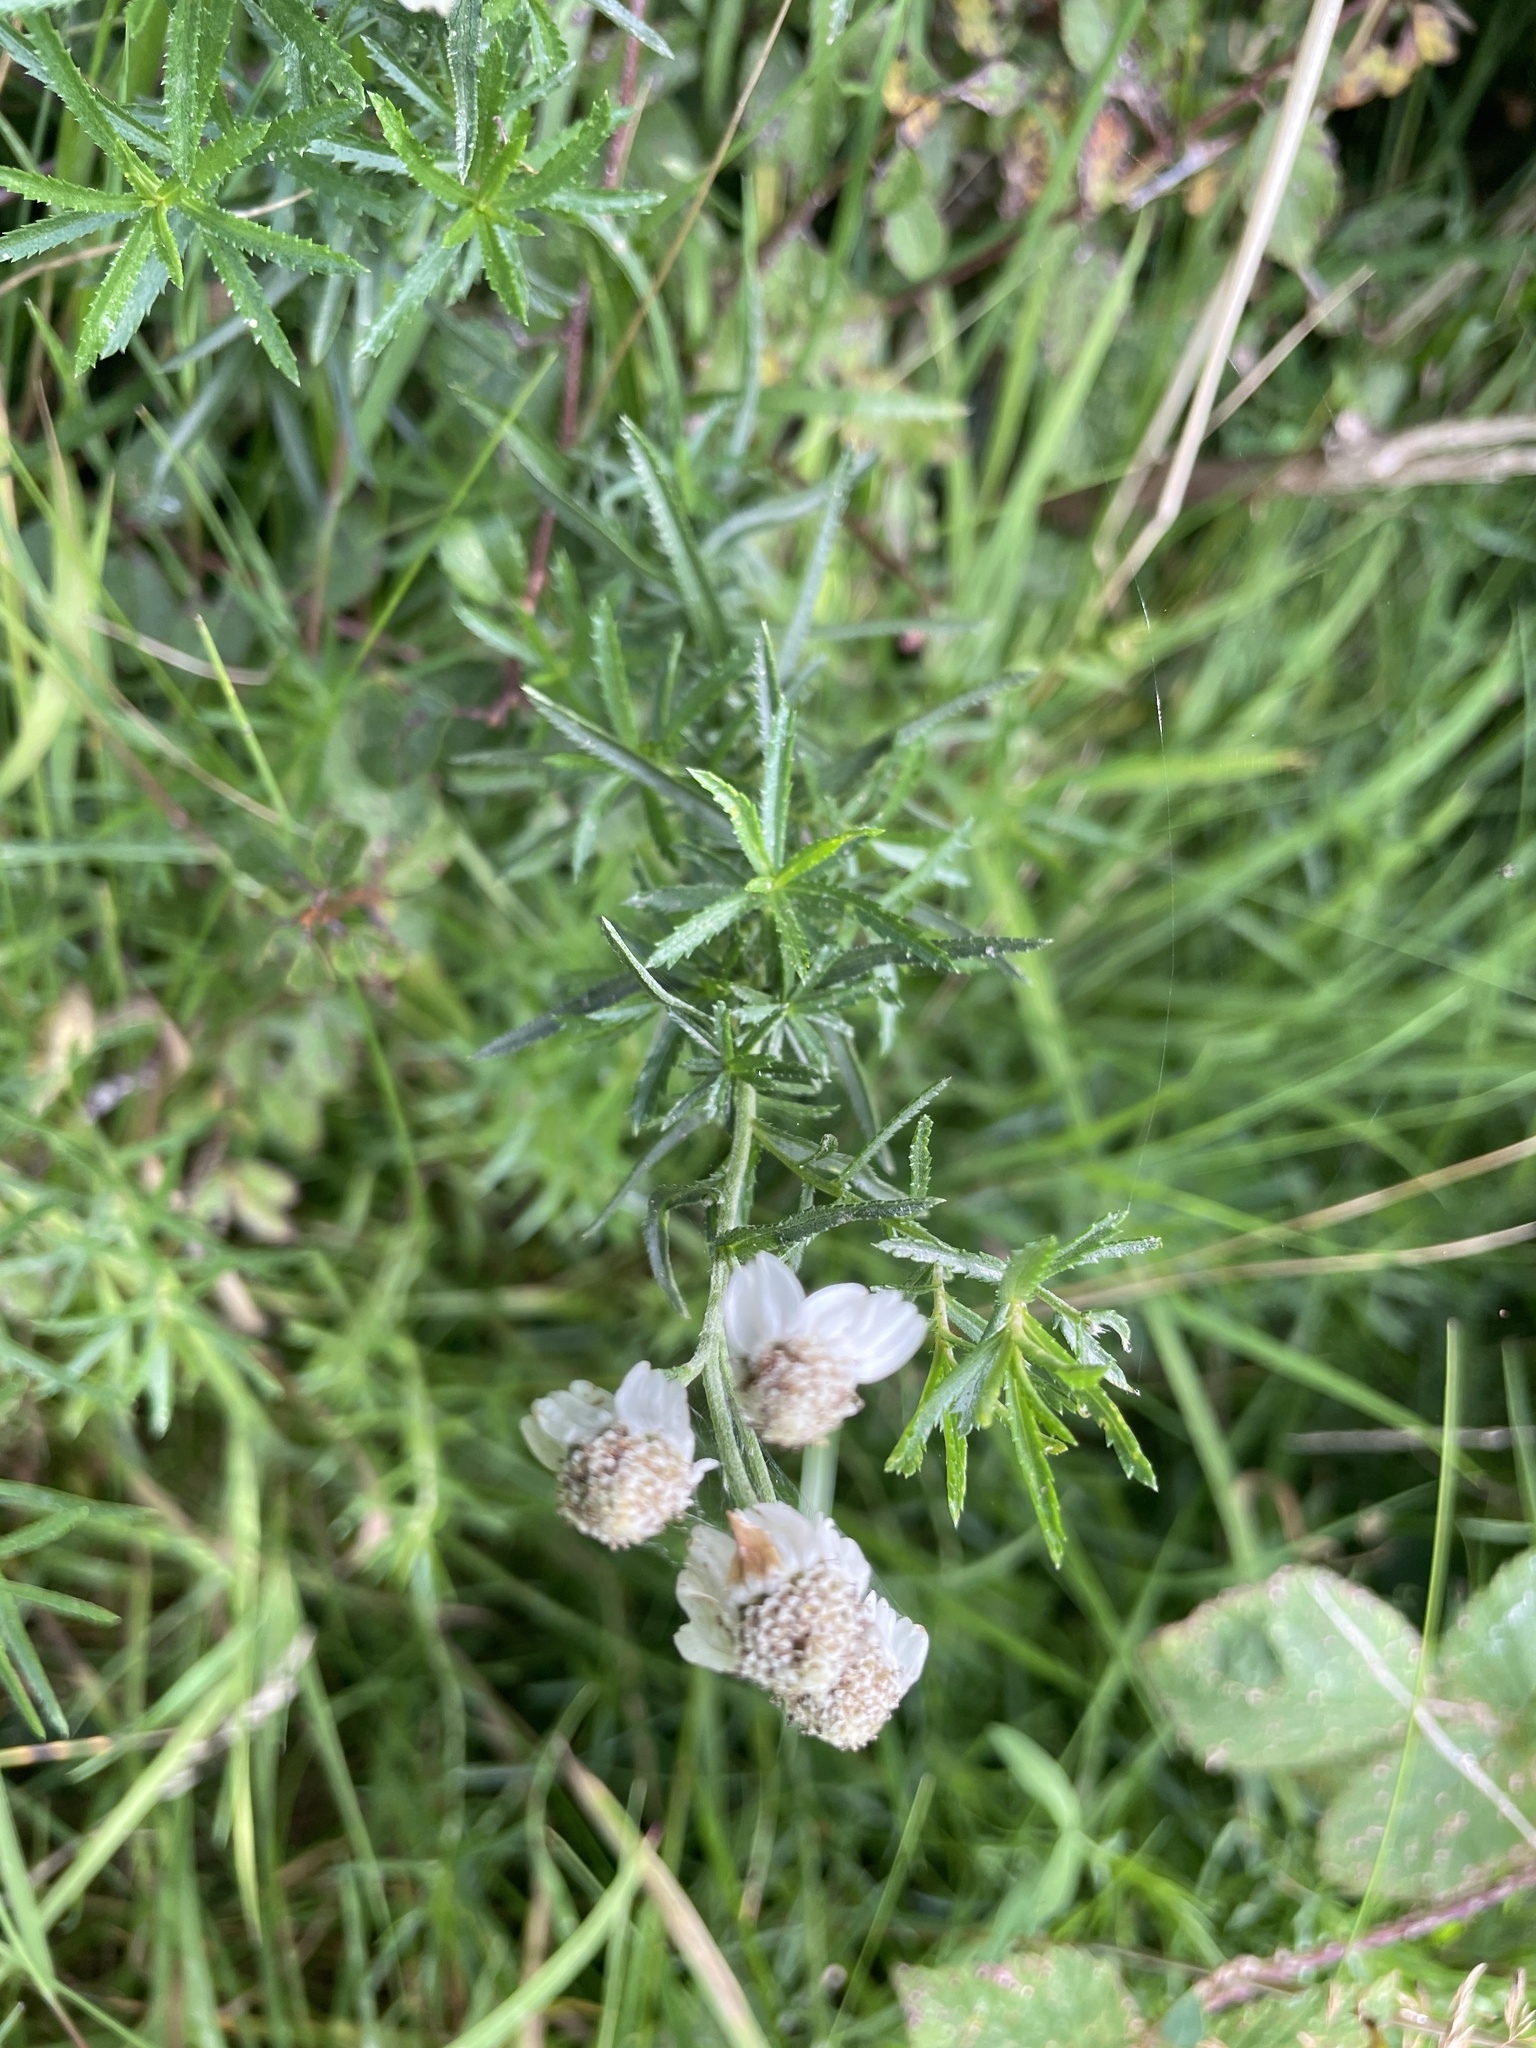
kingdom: Plantae
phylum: Tracheophyta
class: Magnoliopsida
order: Asterales
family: Asteraceae
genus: Achillea
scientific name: Achillea ptarmica
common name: Sneezeweed
